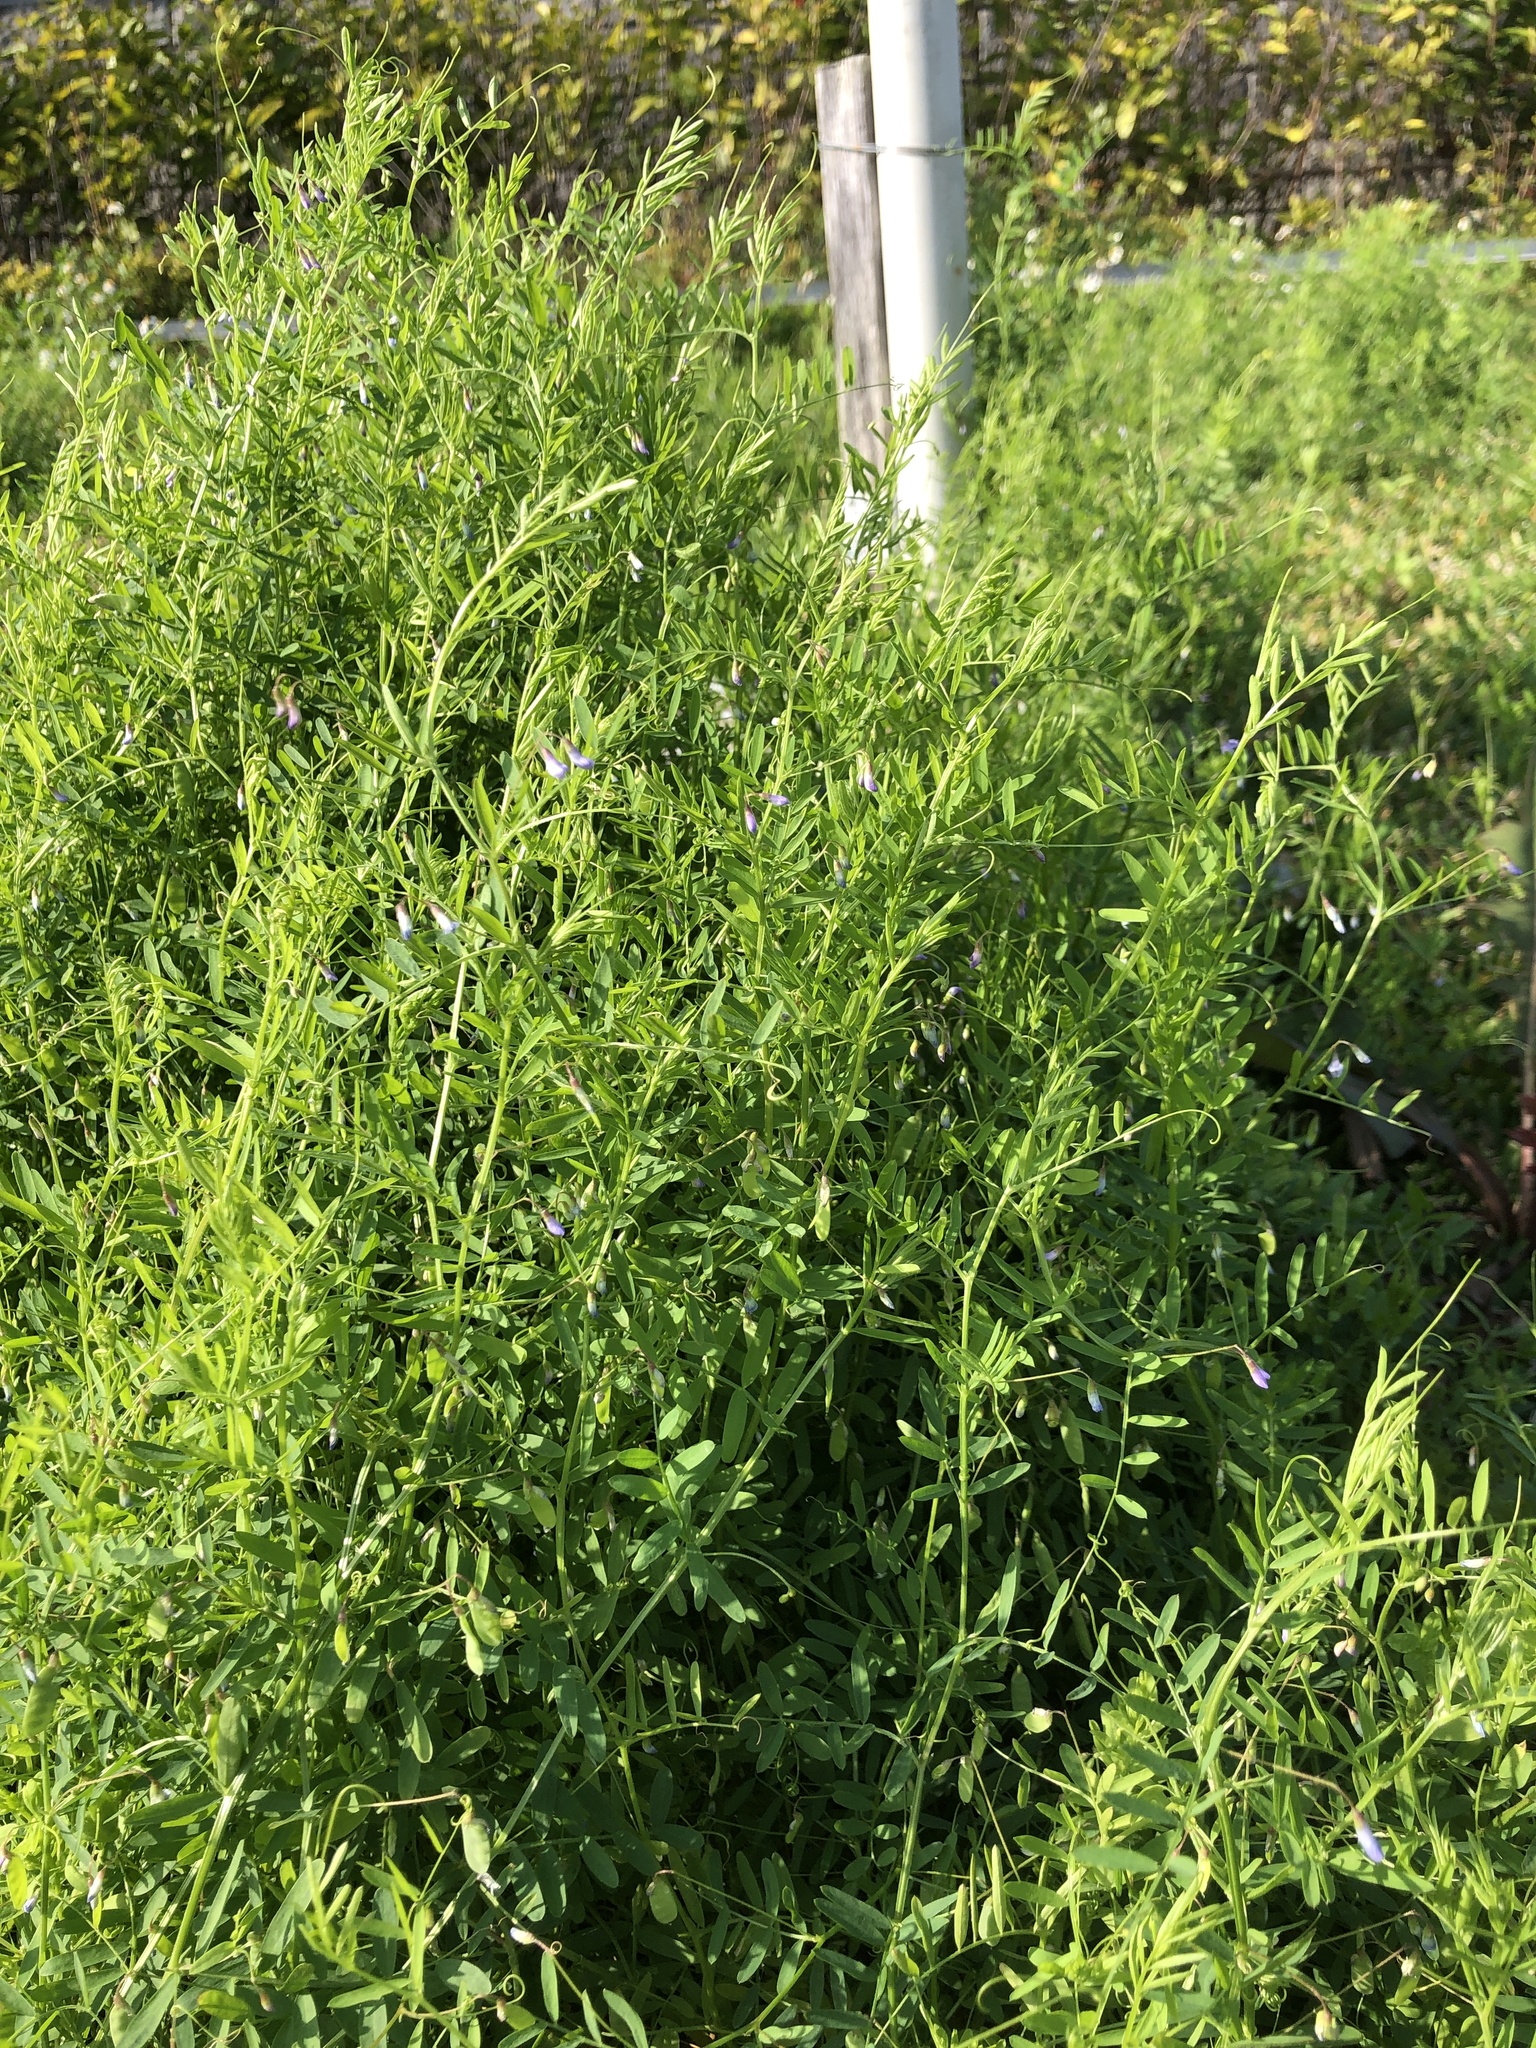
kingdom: Plantae
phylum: Tracheophyta
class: Magnoliopsida
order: Fabales
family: Fabaceae
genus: Vicia
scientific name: Vicia tetrasperma
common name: Smooth tare
